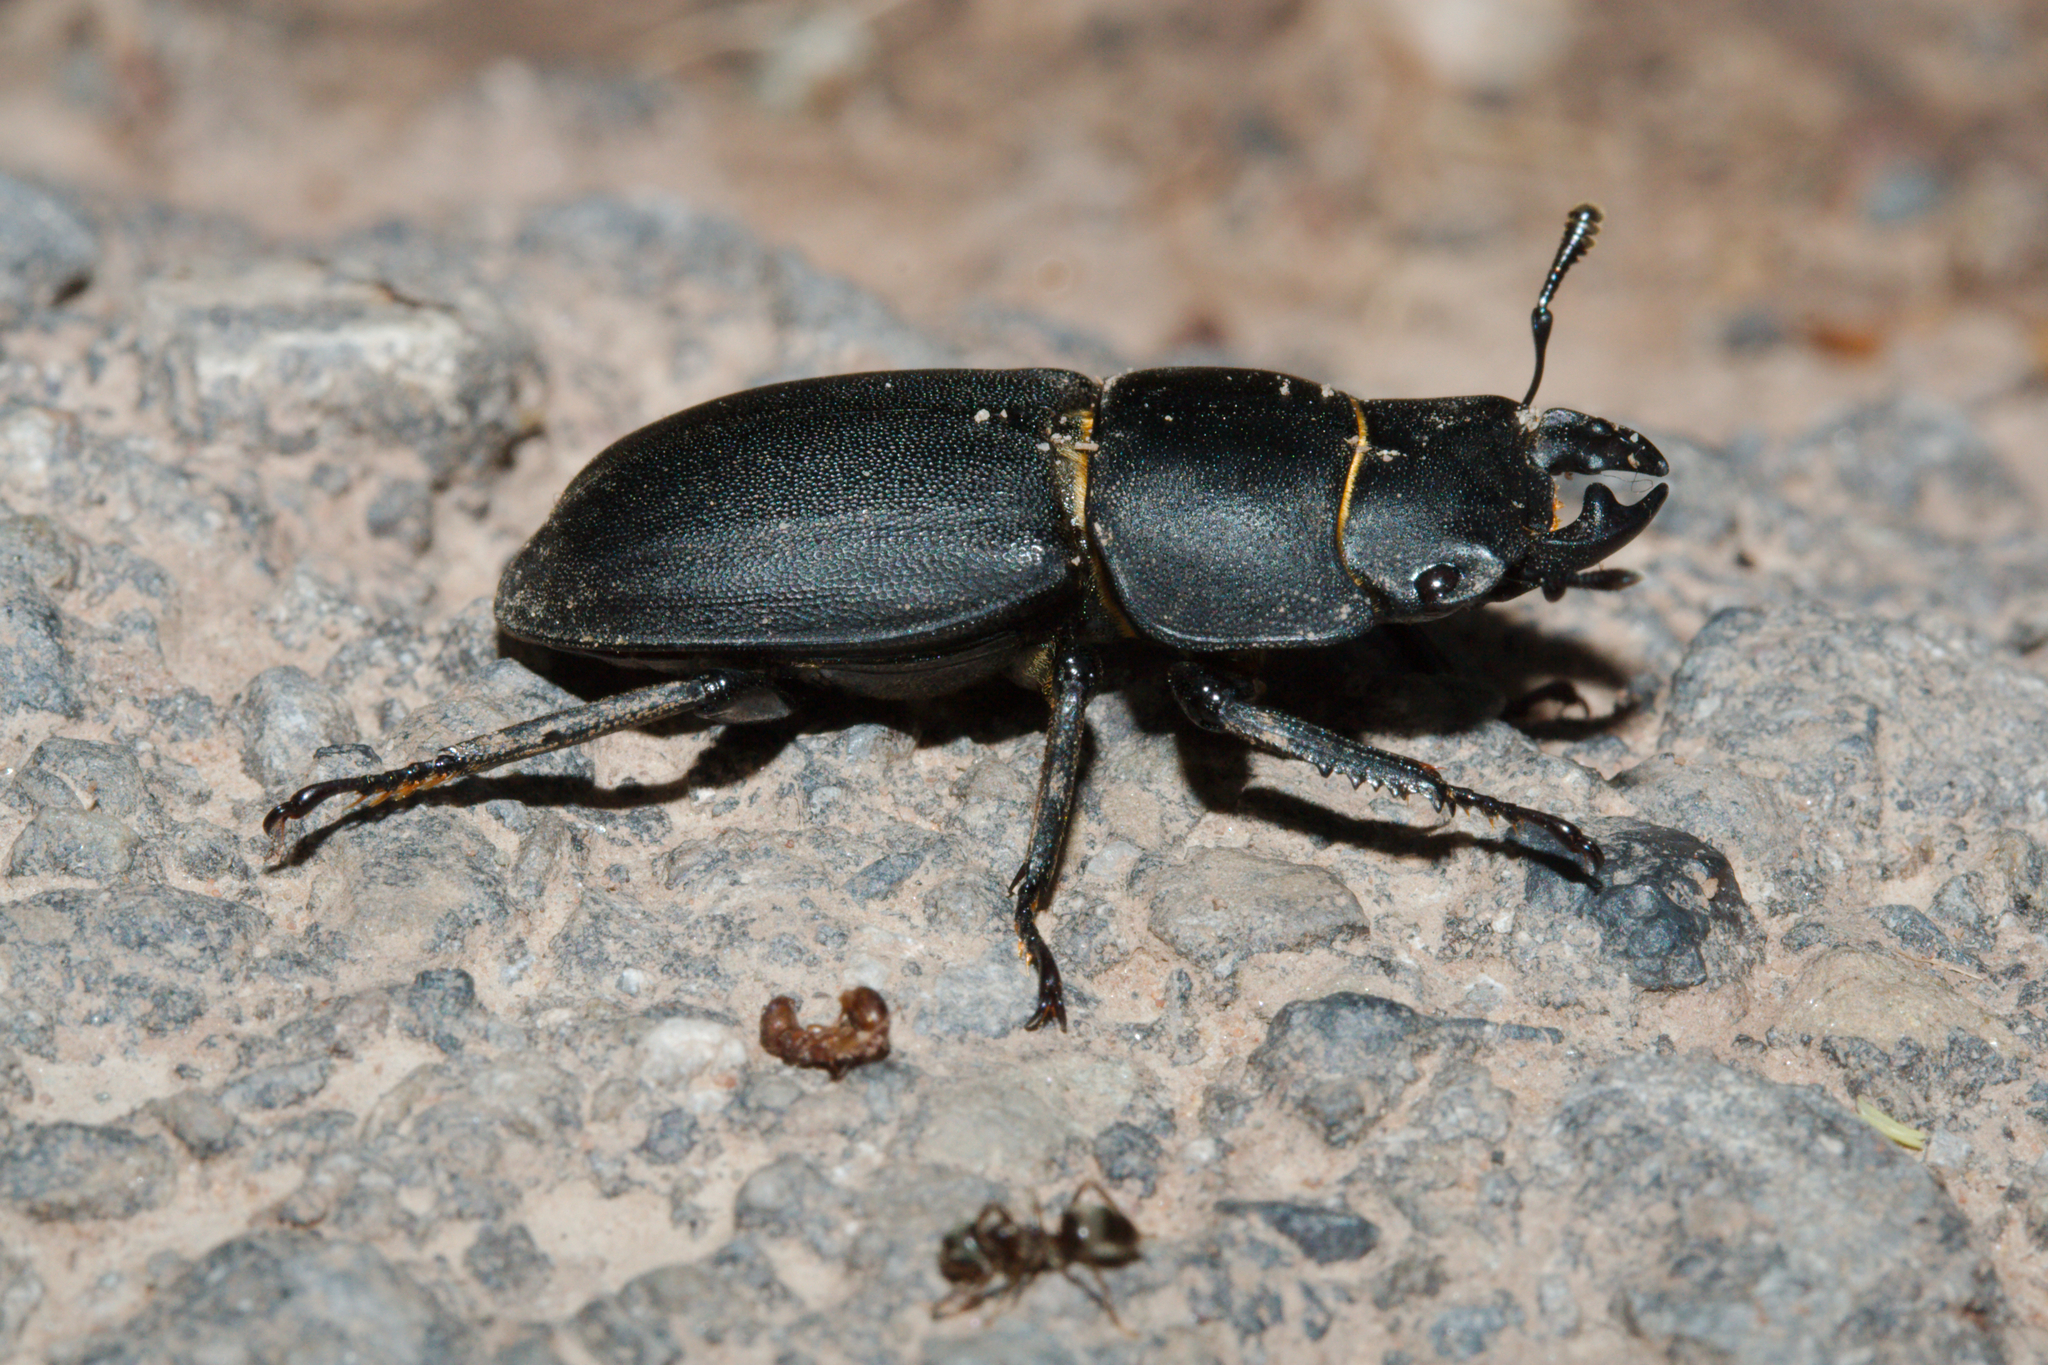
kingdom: Animalia
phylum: Arthropoda
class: Insecta
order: Coleoptera
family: Lucanidae
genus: Dorcus
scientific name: Dorcus parallelipipedus
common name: Lesser stag beetle
